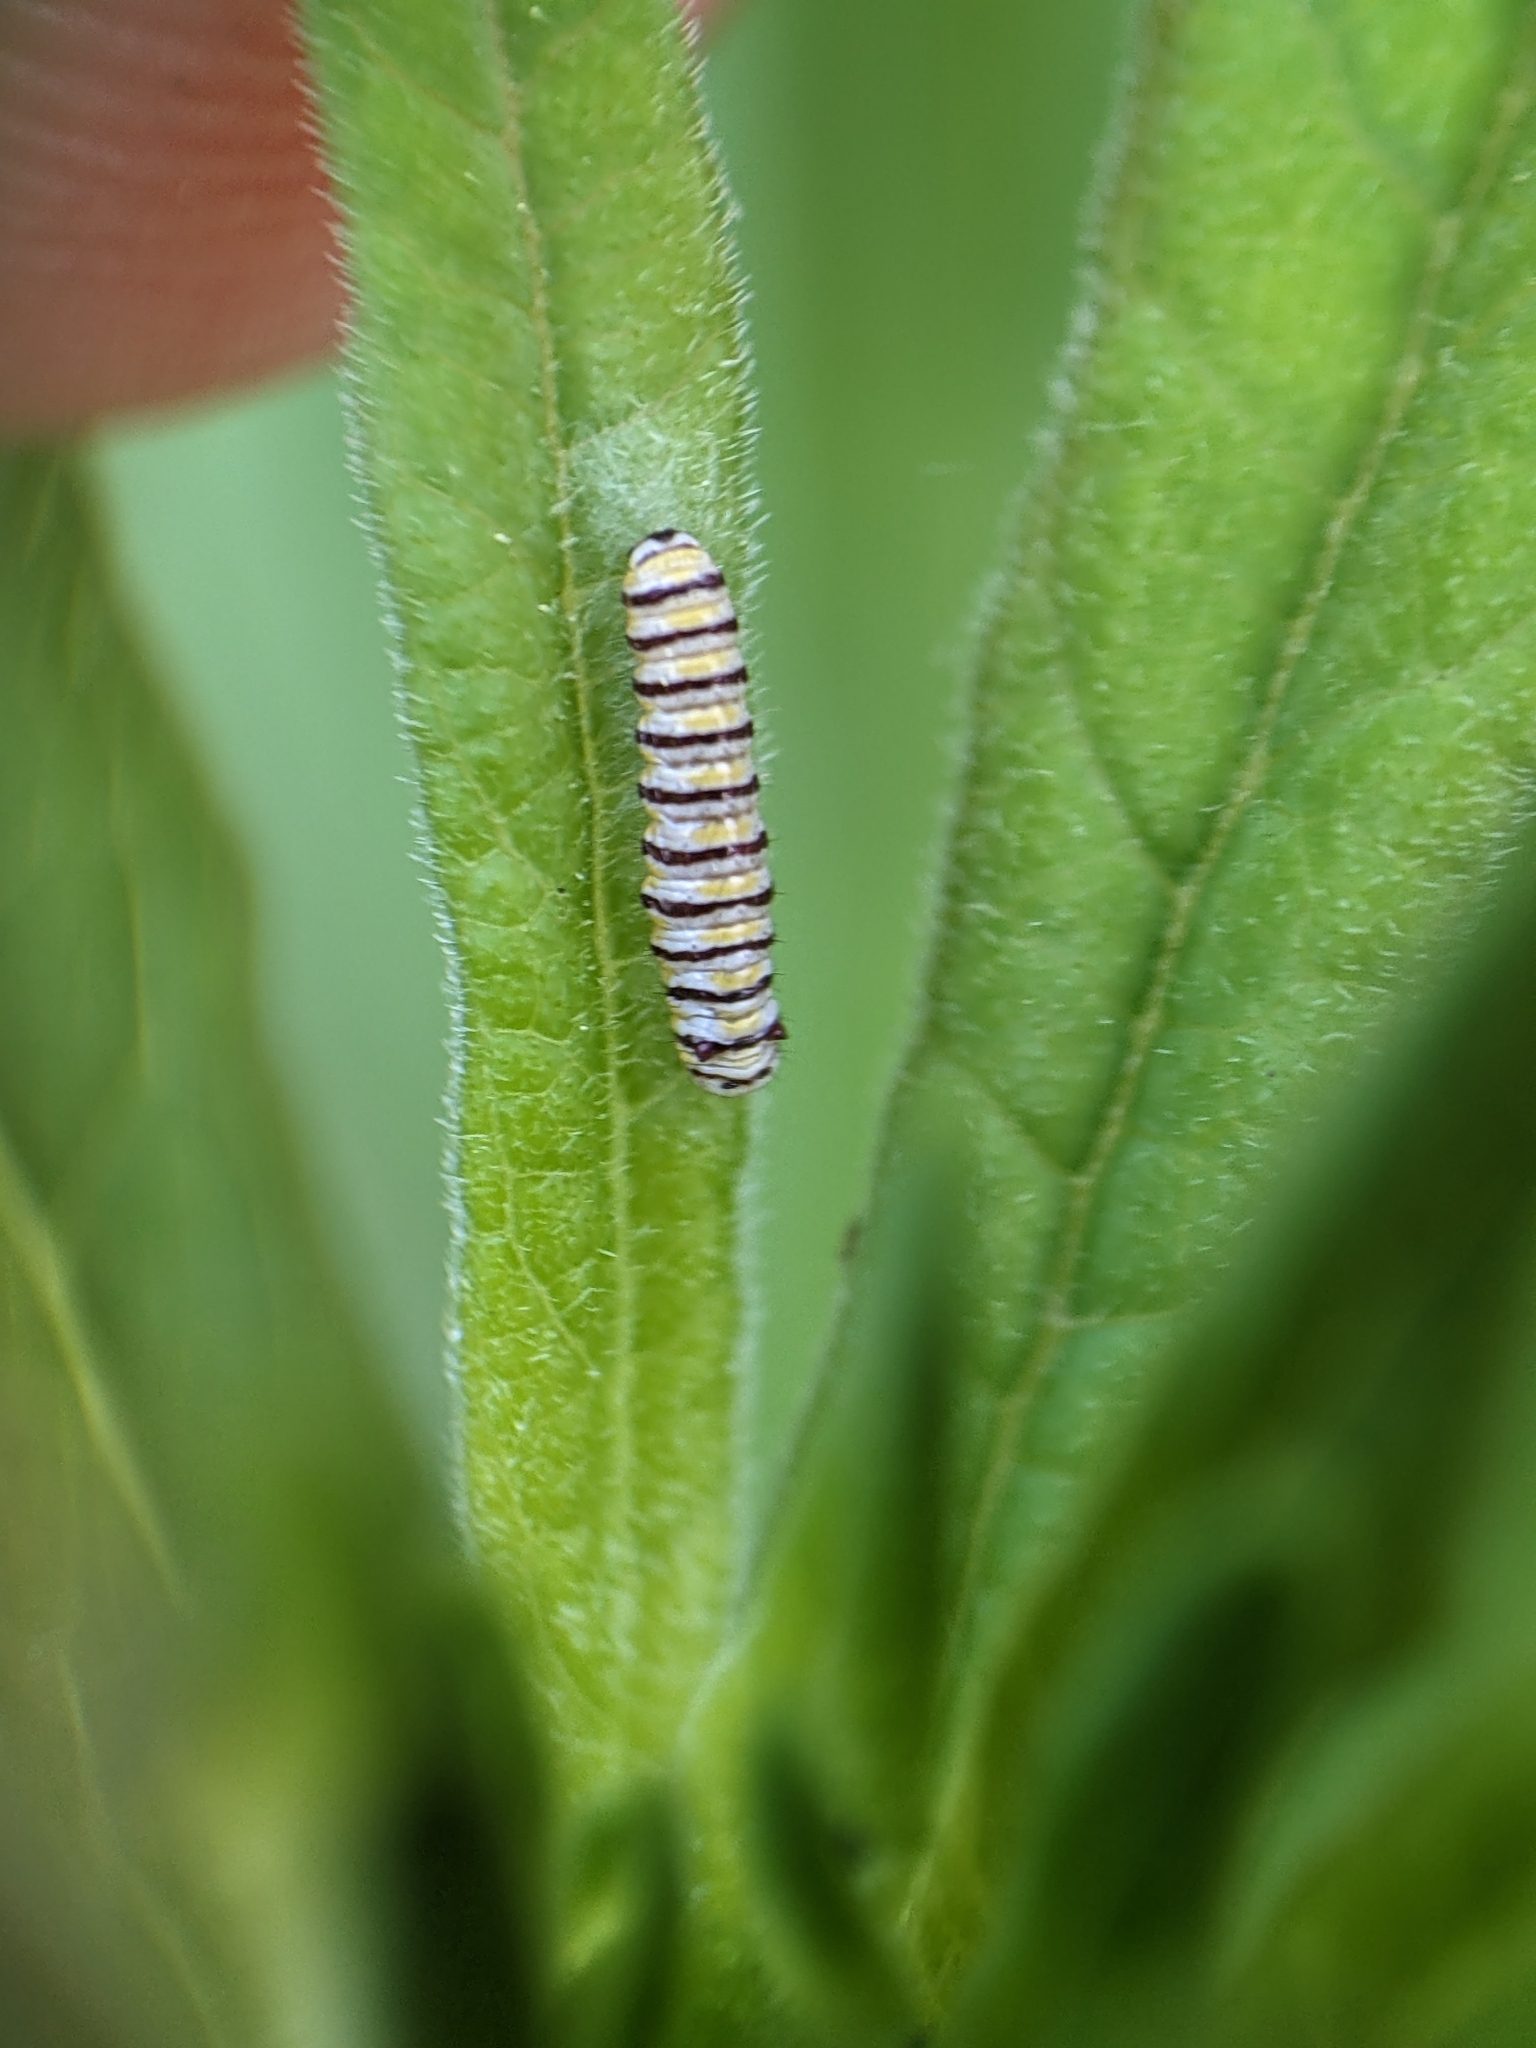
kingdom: Animalia
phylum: Arthropoda
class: Insecta
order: Lepidoptera
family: Nymphalidae
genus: Danaus
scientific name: Danaus plexippus
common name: Monarch
